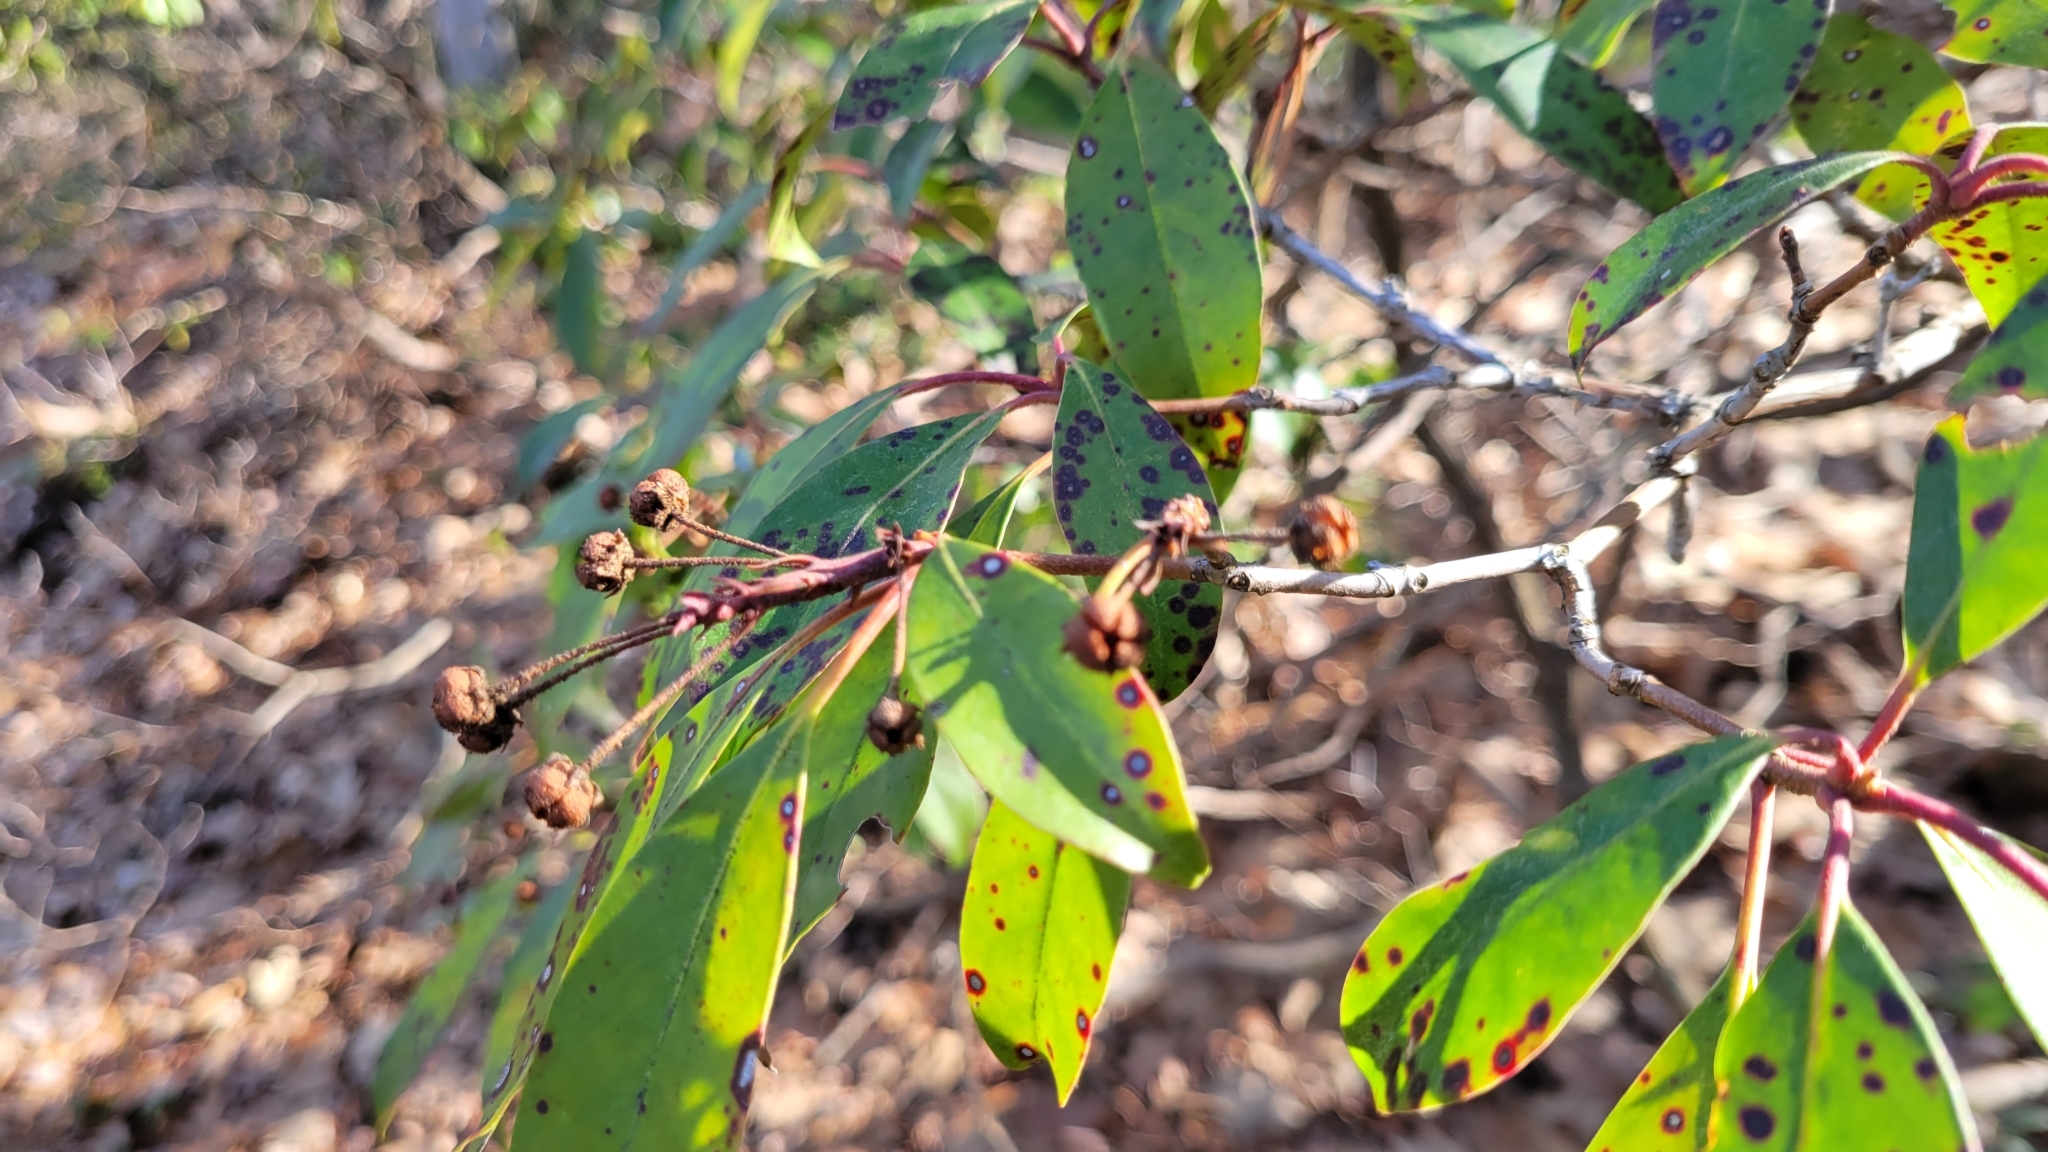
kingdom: Plantae
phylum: Tracheophyta
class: Magnoliopsida
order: Ericales
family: Ericaceae
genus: Kalmia
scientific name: Kalmia latifolia
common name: Mountain-laurel
